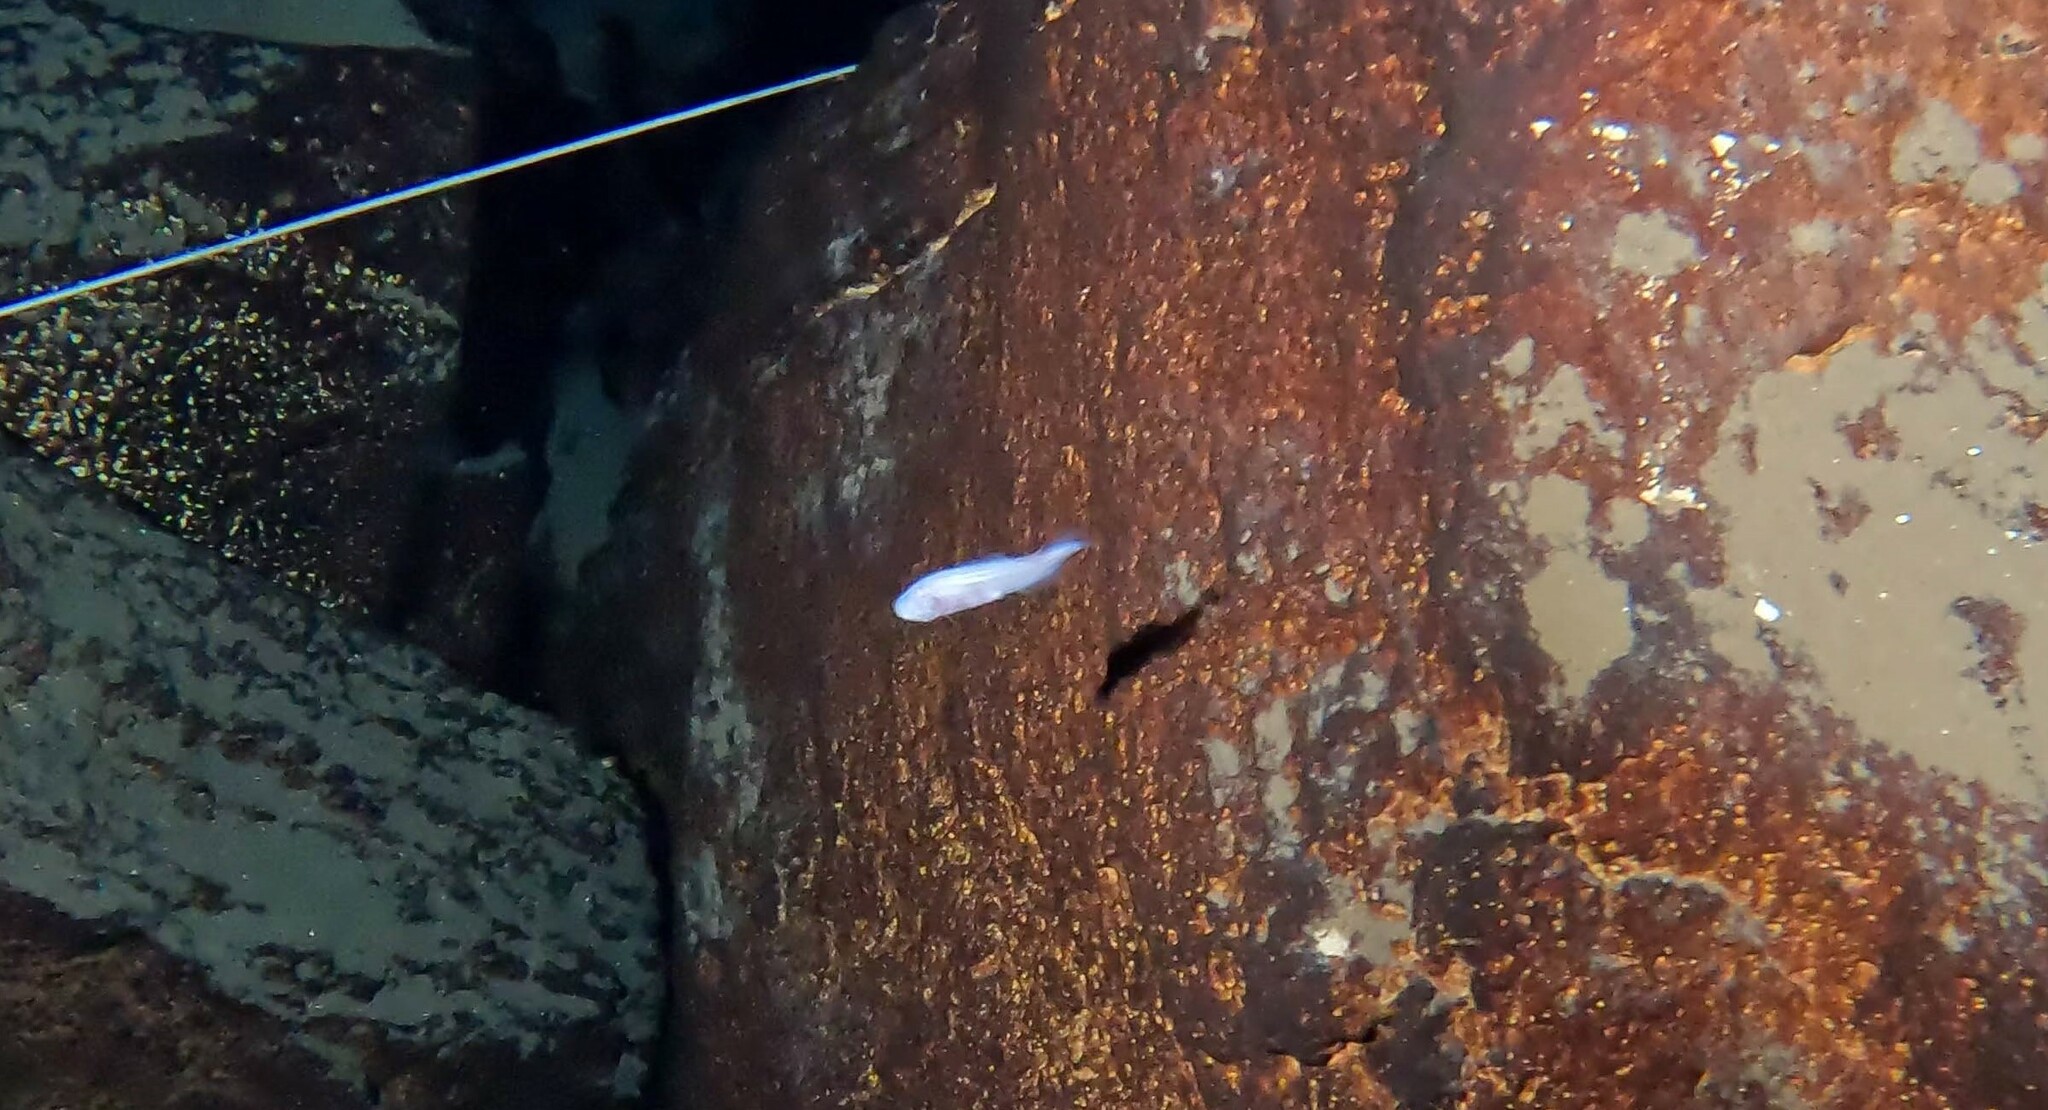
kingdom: Animalia
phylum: Chordata
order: Ophidiiformes
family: Bythitidae
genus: Typhliasina
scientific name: Typhliasina pearsei
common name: Dama ciega blanca
